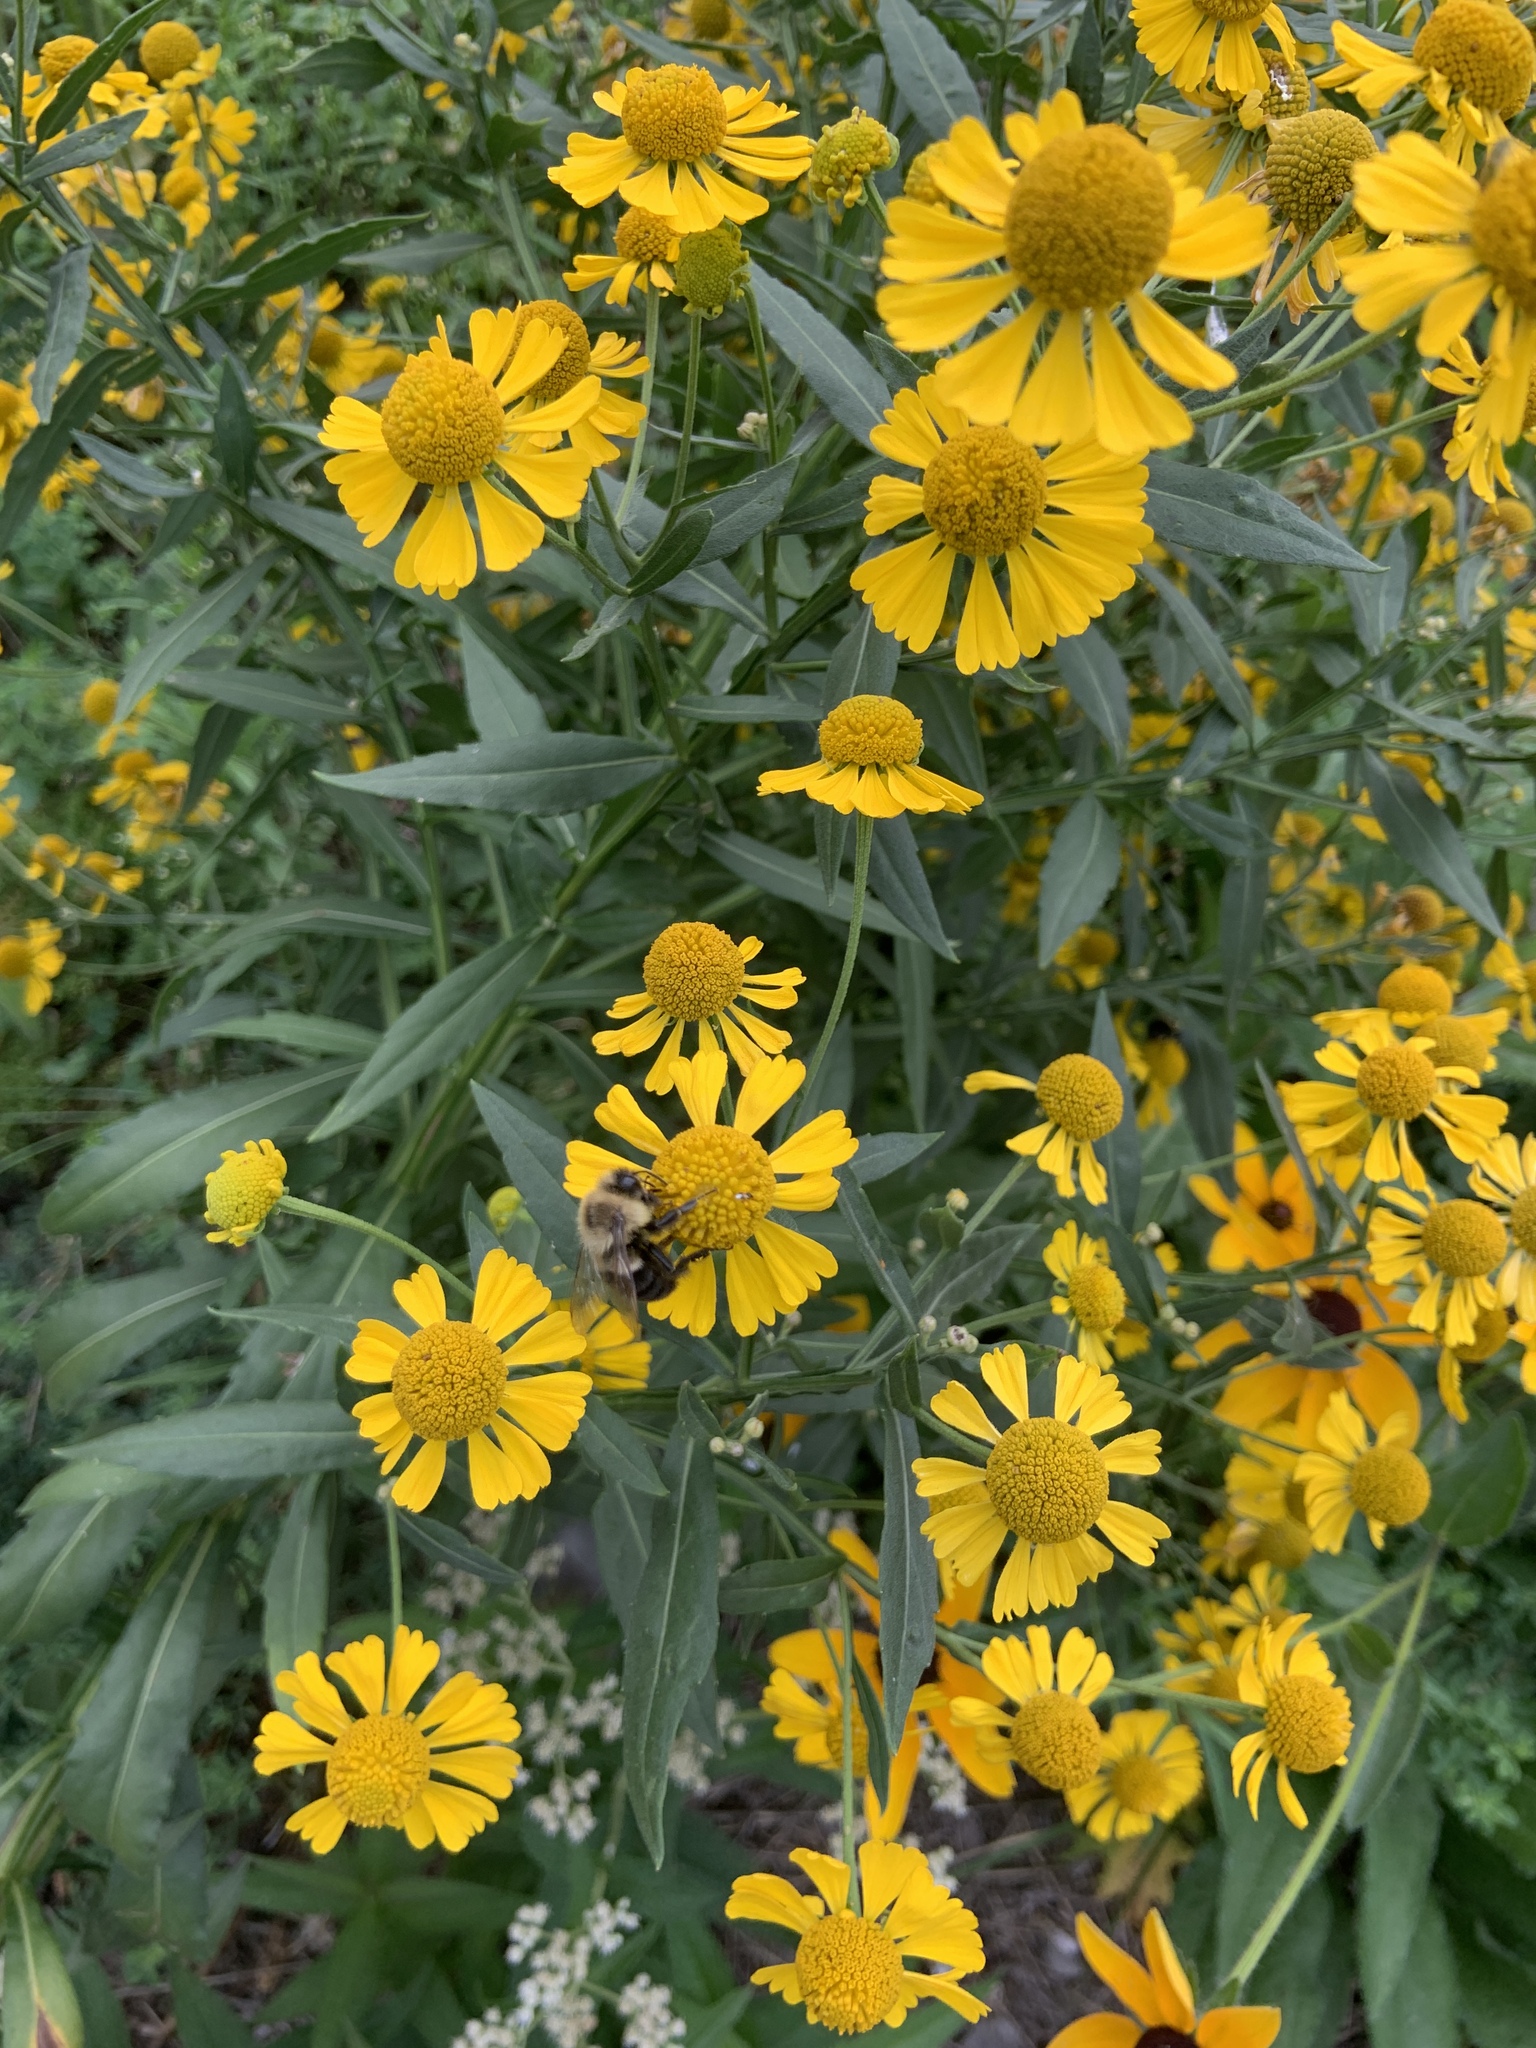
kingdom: Animalia
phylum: Arthropoda
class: Insecta
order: Hymenoptera
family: Apidae
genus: Bombus
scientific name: Bombus impatiens
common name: Common eastern bumble bee
